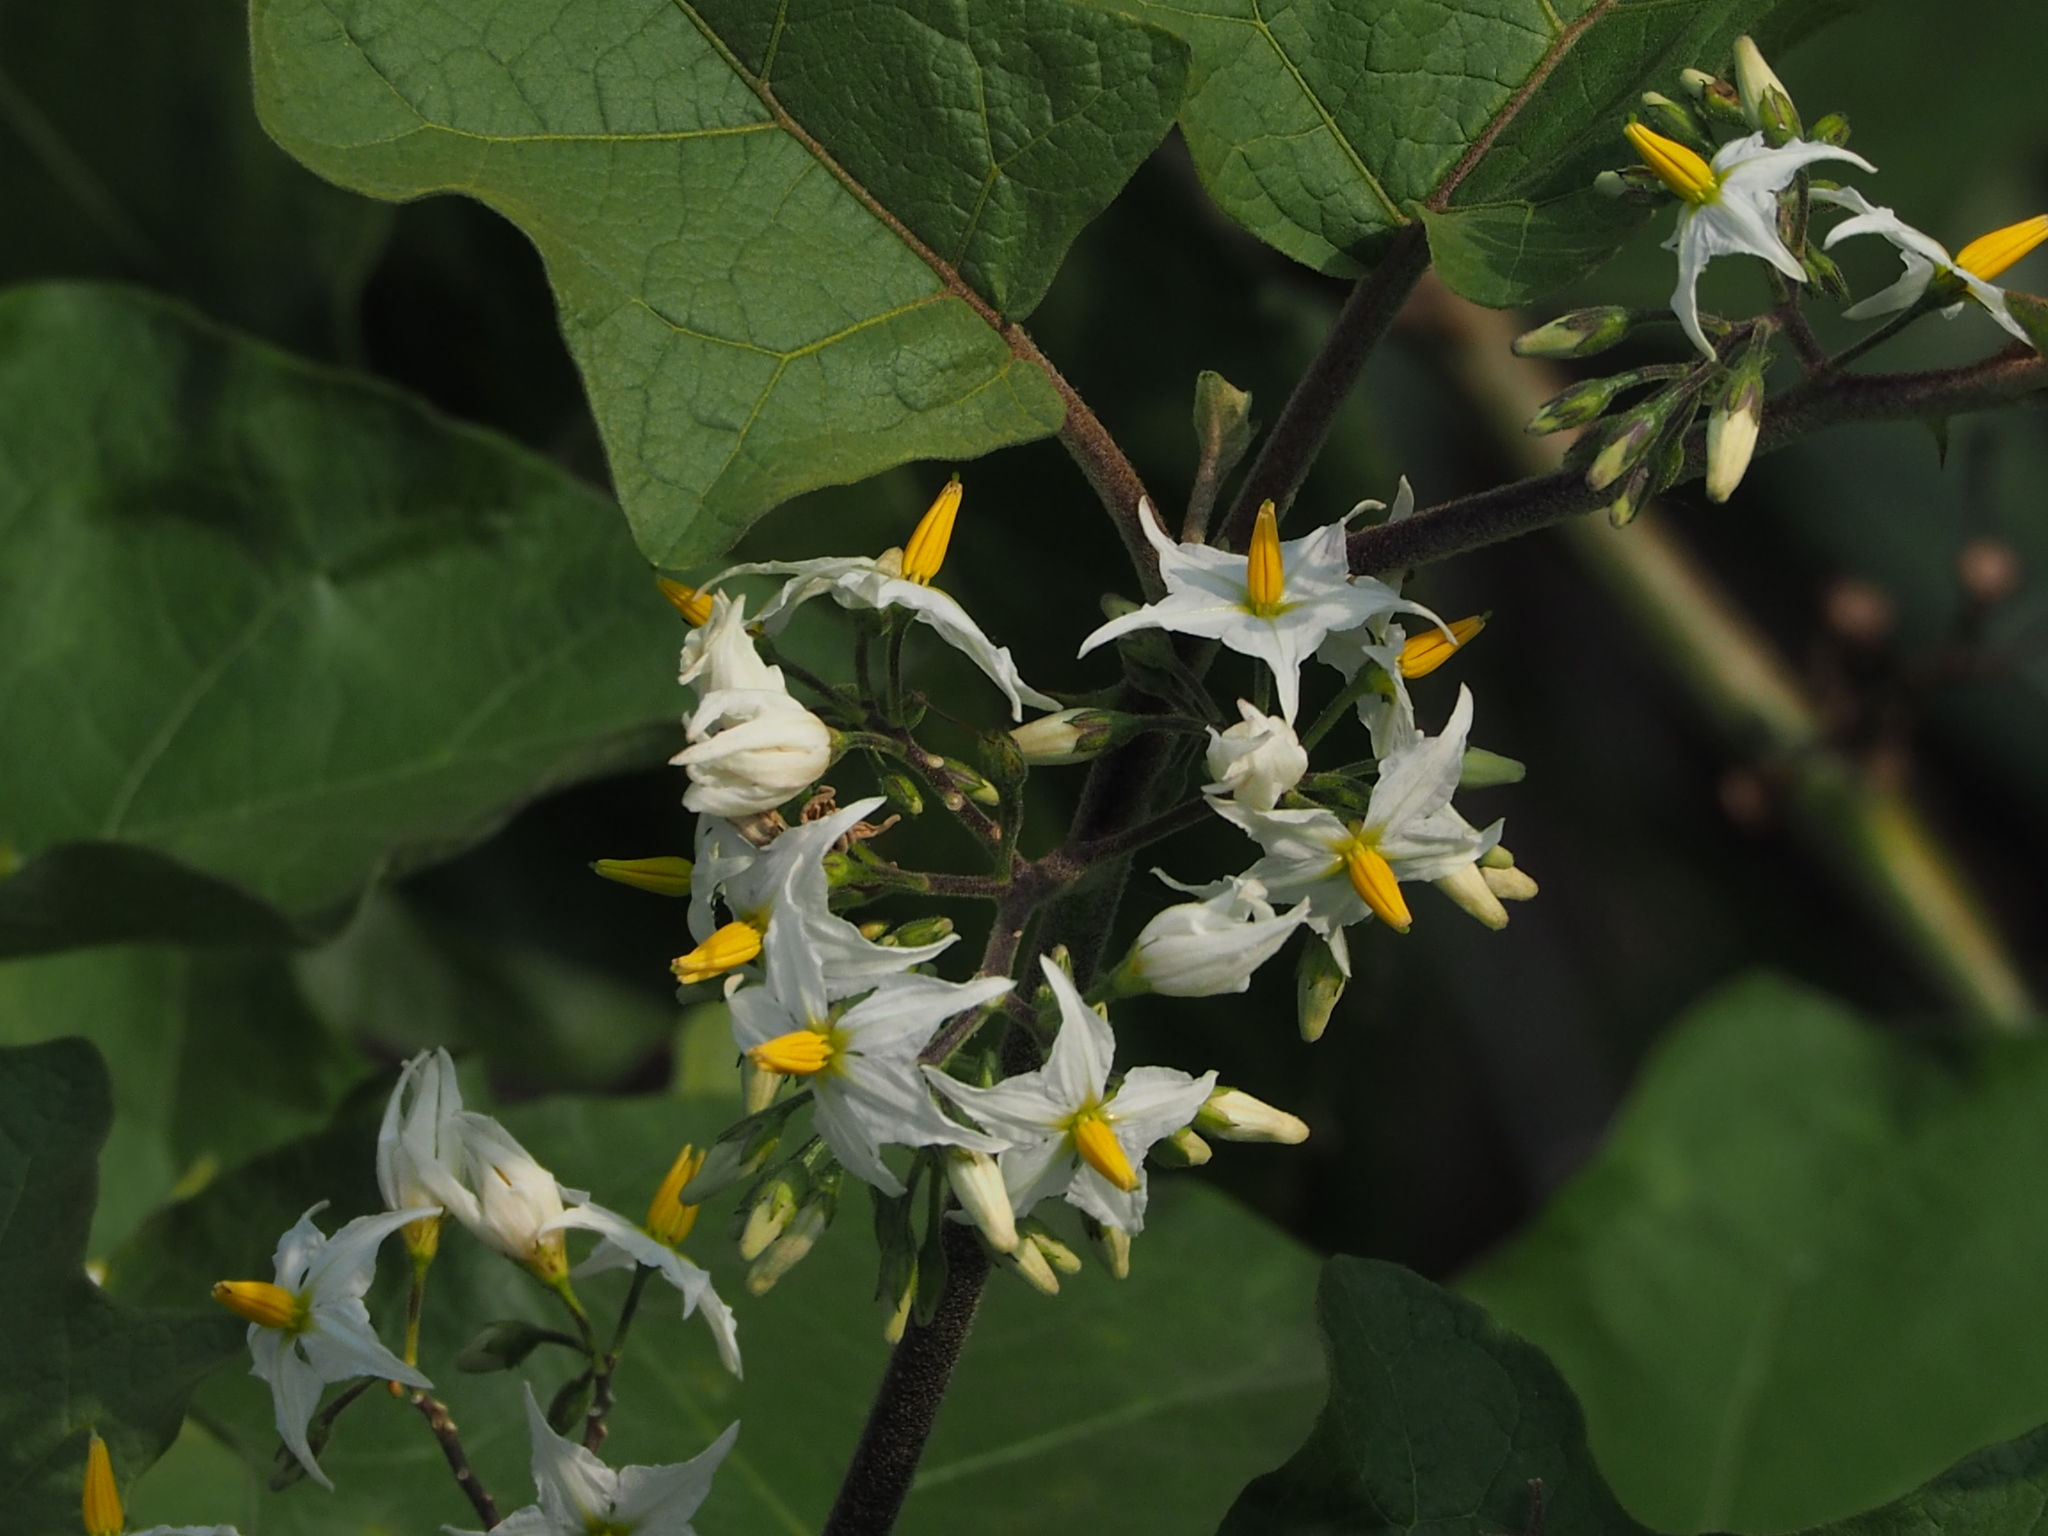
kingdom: Plantae
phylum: Tracheophyta
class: Magnoliopsida
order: Solanales
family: Solanaceae
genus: Solanum
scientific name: Solanum torvum
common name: Turkey berry
